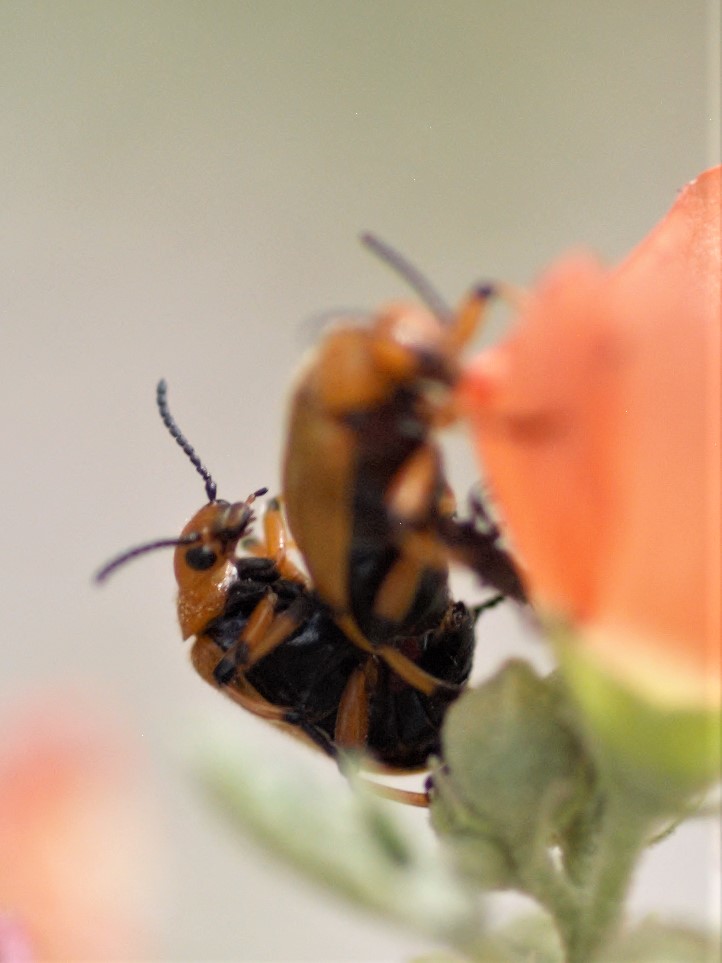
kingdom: Animalia
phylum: Arthropoda
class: Insecta
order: Coleoptera
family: Meloidae
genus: Tetraonyx
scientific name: Tetraonyx fulva
